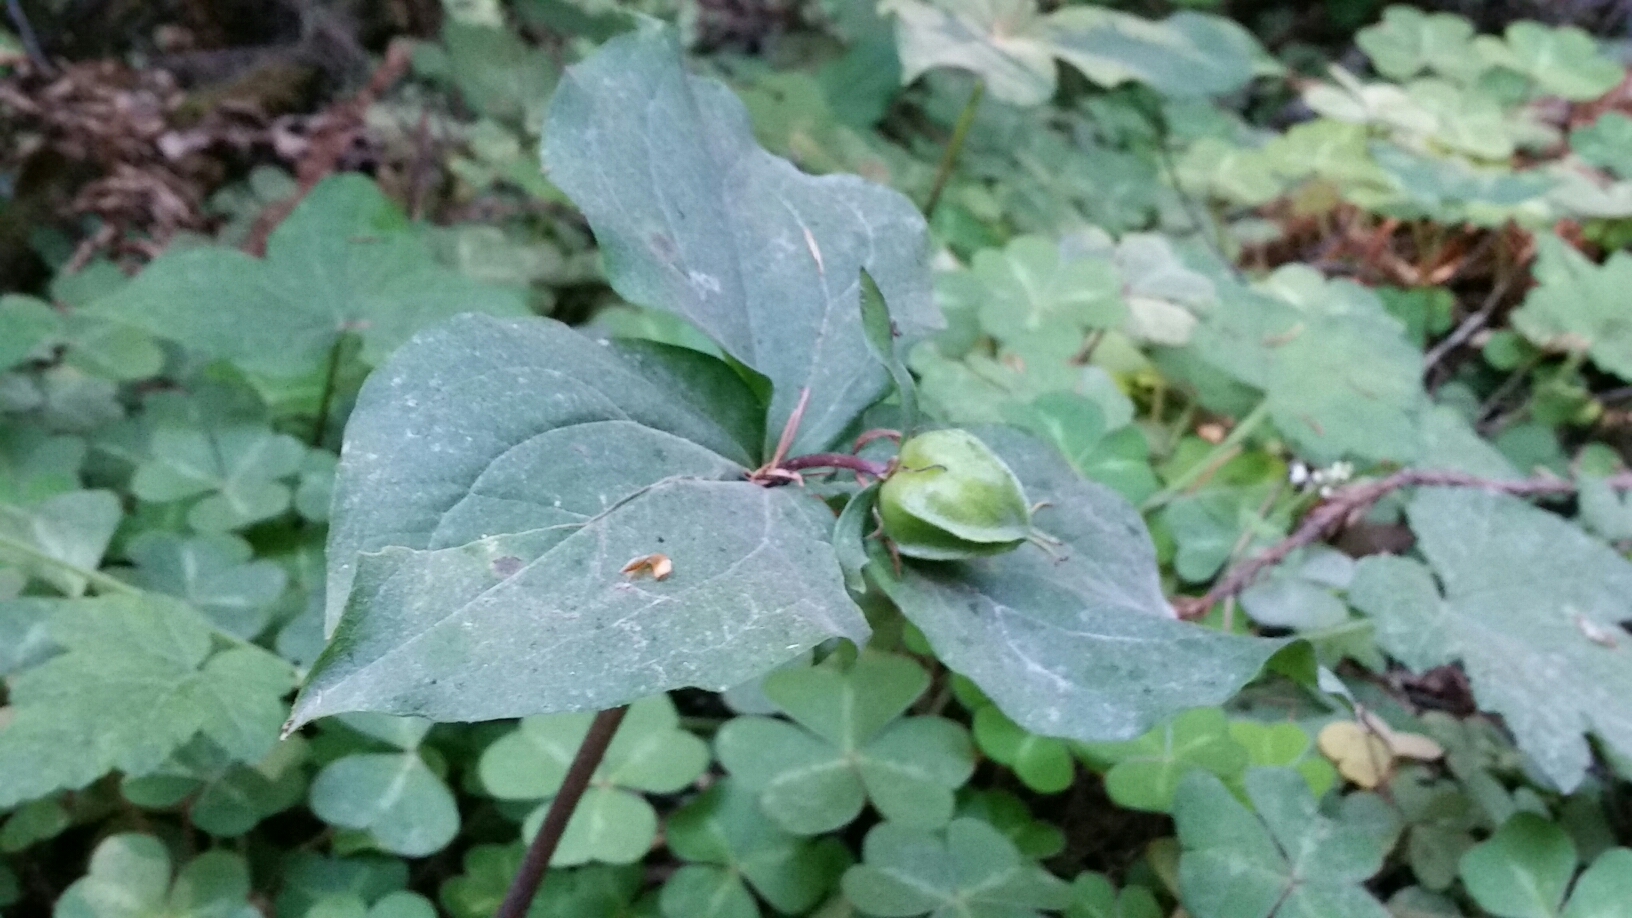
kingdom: Plantae
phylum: Tracheophyta
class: Liliopsida
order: Liliales
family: Melanthiaceae
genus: Trillium
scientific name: Trillium ovatum
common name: Pacific trillium
